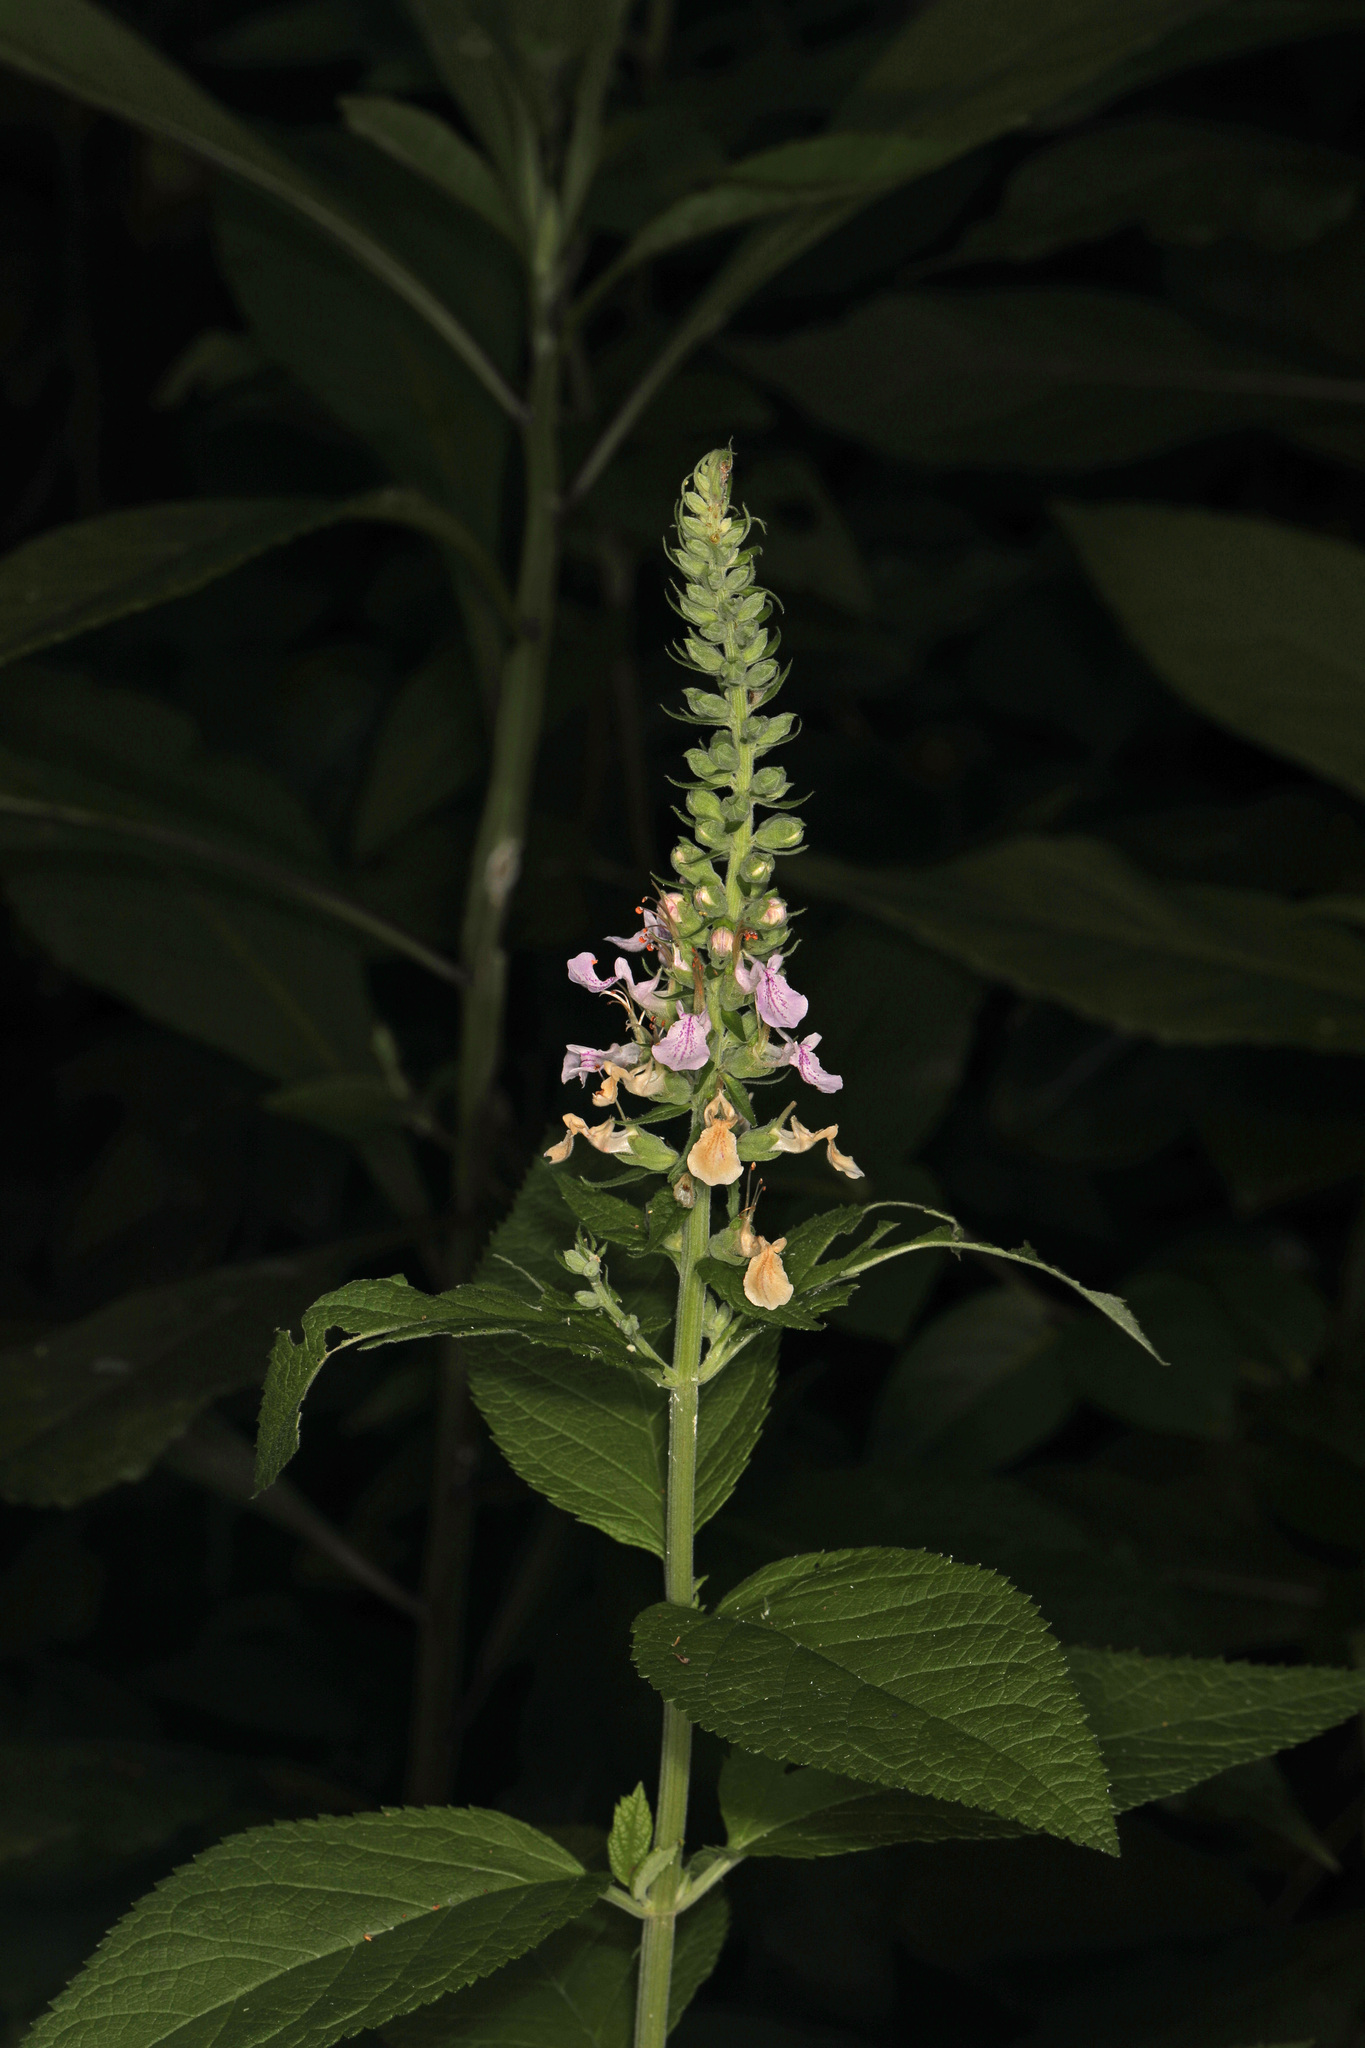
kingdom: Plantae
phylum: Tracheophyta
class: Magnoliopsida
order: Lamiales
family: Lamiaceae
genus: Teucrium
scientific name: Teucrium canadense
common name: American germander
